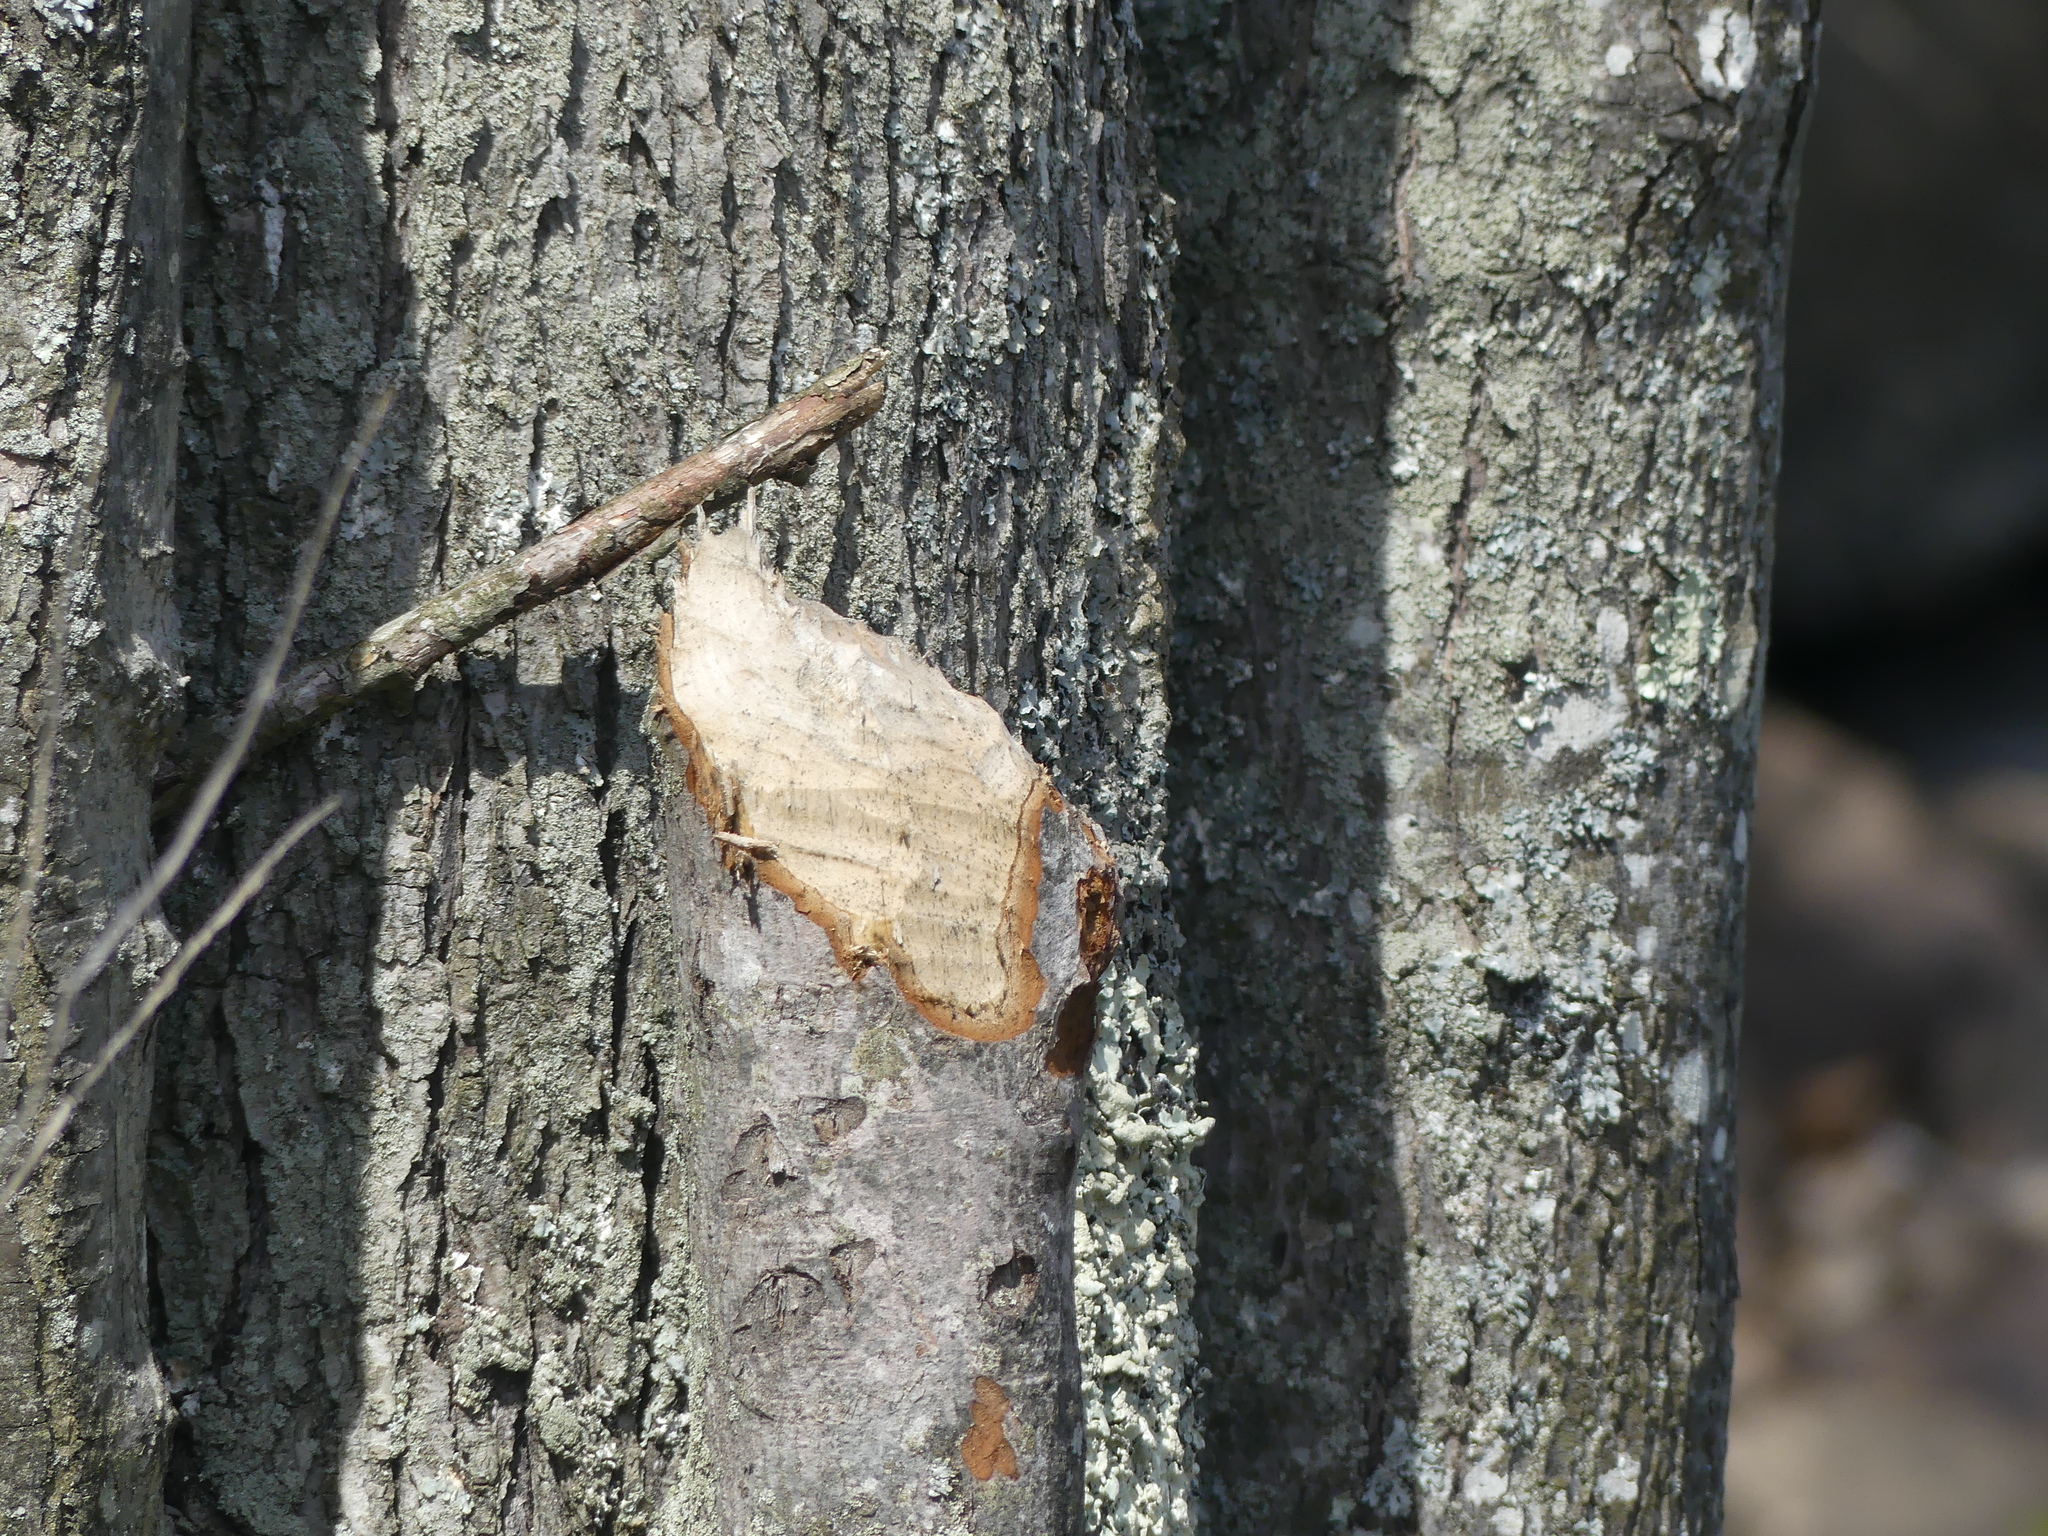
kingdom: Animalia
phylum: Chordata
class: Mammalia
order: Rodentia
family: Castoridae
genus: Castor
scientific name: Castor canadensis
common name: American beaver
